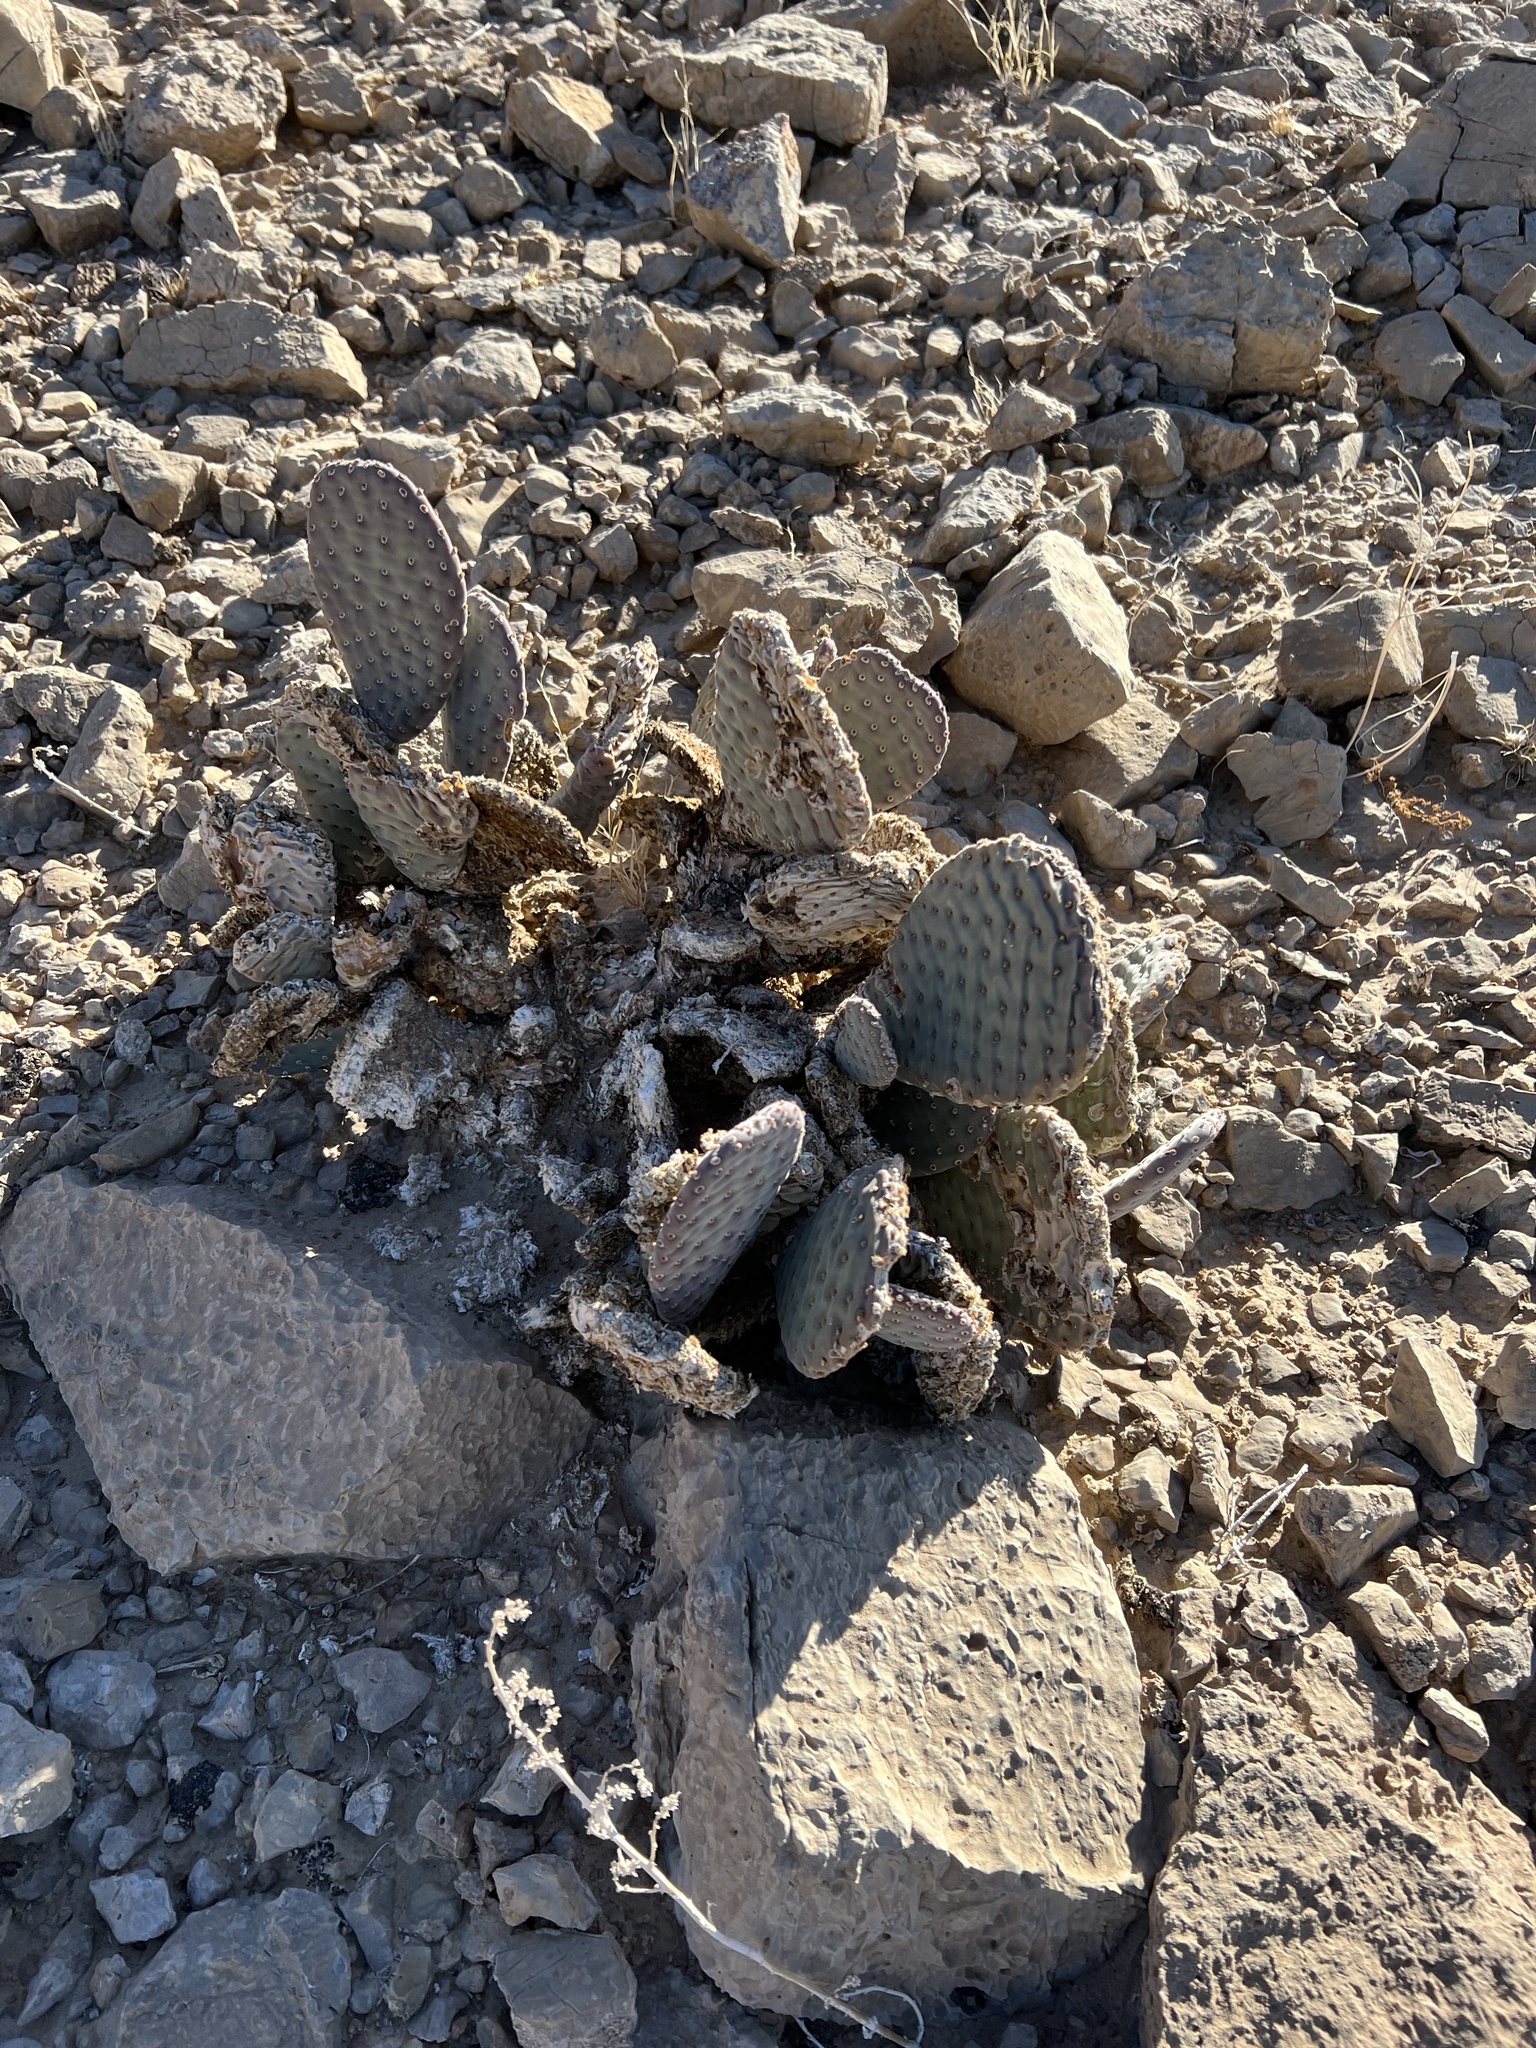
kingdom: Plantae
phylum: Tracheophyta
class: Magnoliopsida
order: Caryophyllales
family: Cactaceae
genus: Opuntia
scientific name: Opuntia basilaris
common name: Beavertail prickly-pear
